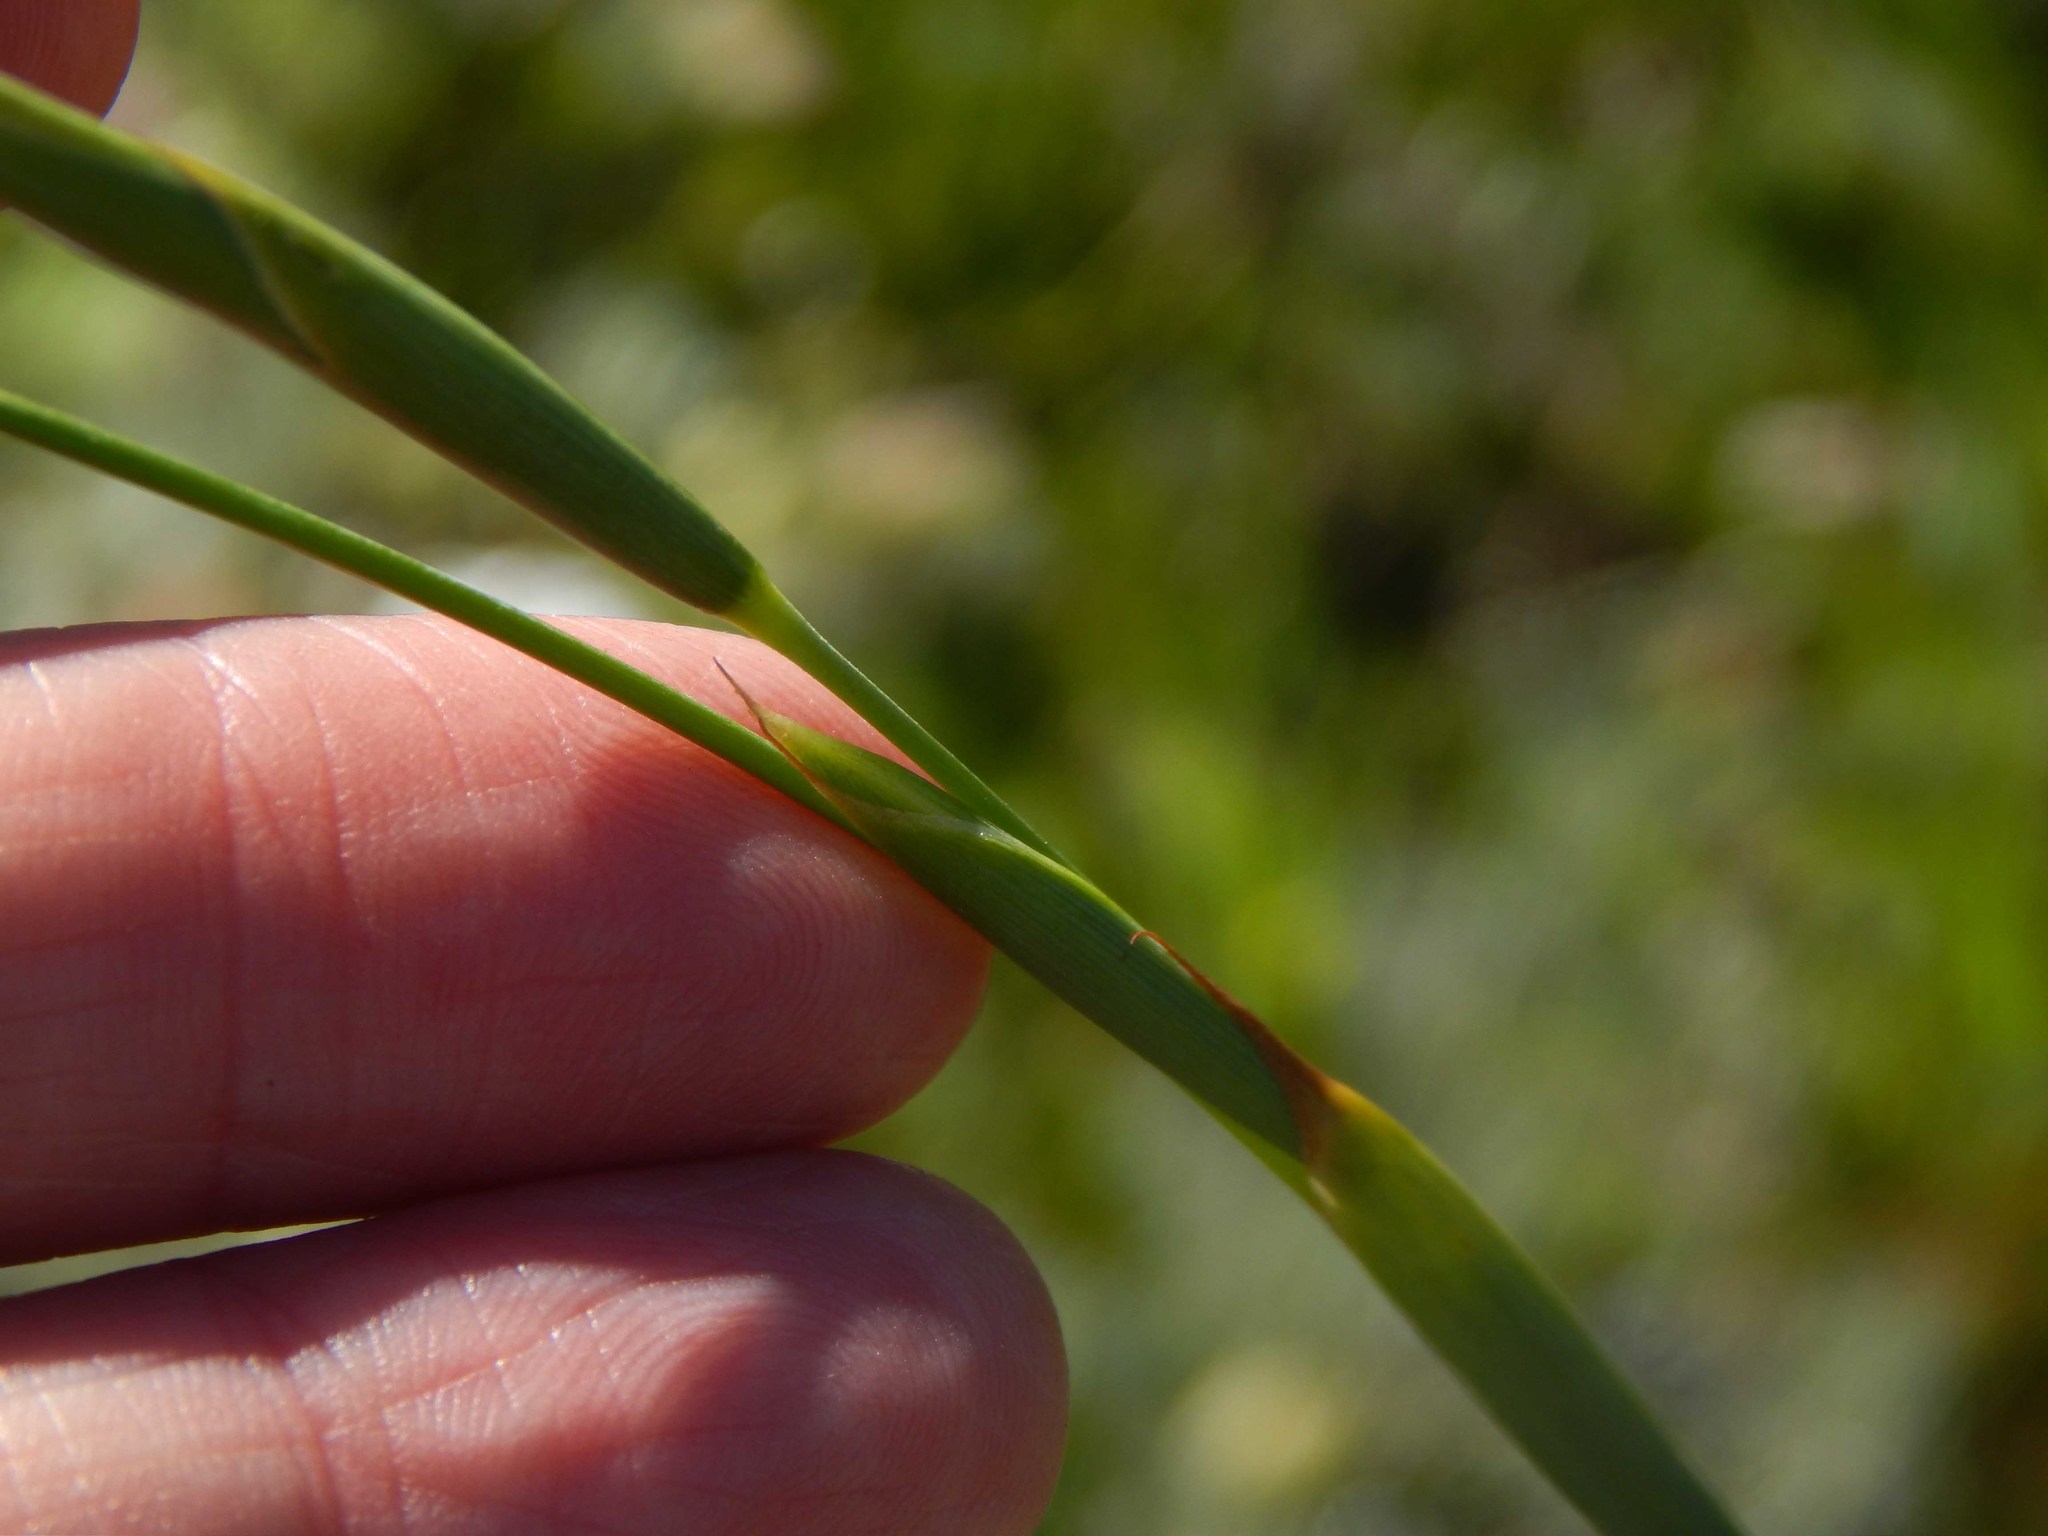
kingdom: Plantae
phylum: Tracheophyta
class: Liliopsida
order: Asparagales
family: Iridaceae
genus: Moraea
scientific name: Moraea bellendenii
